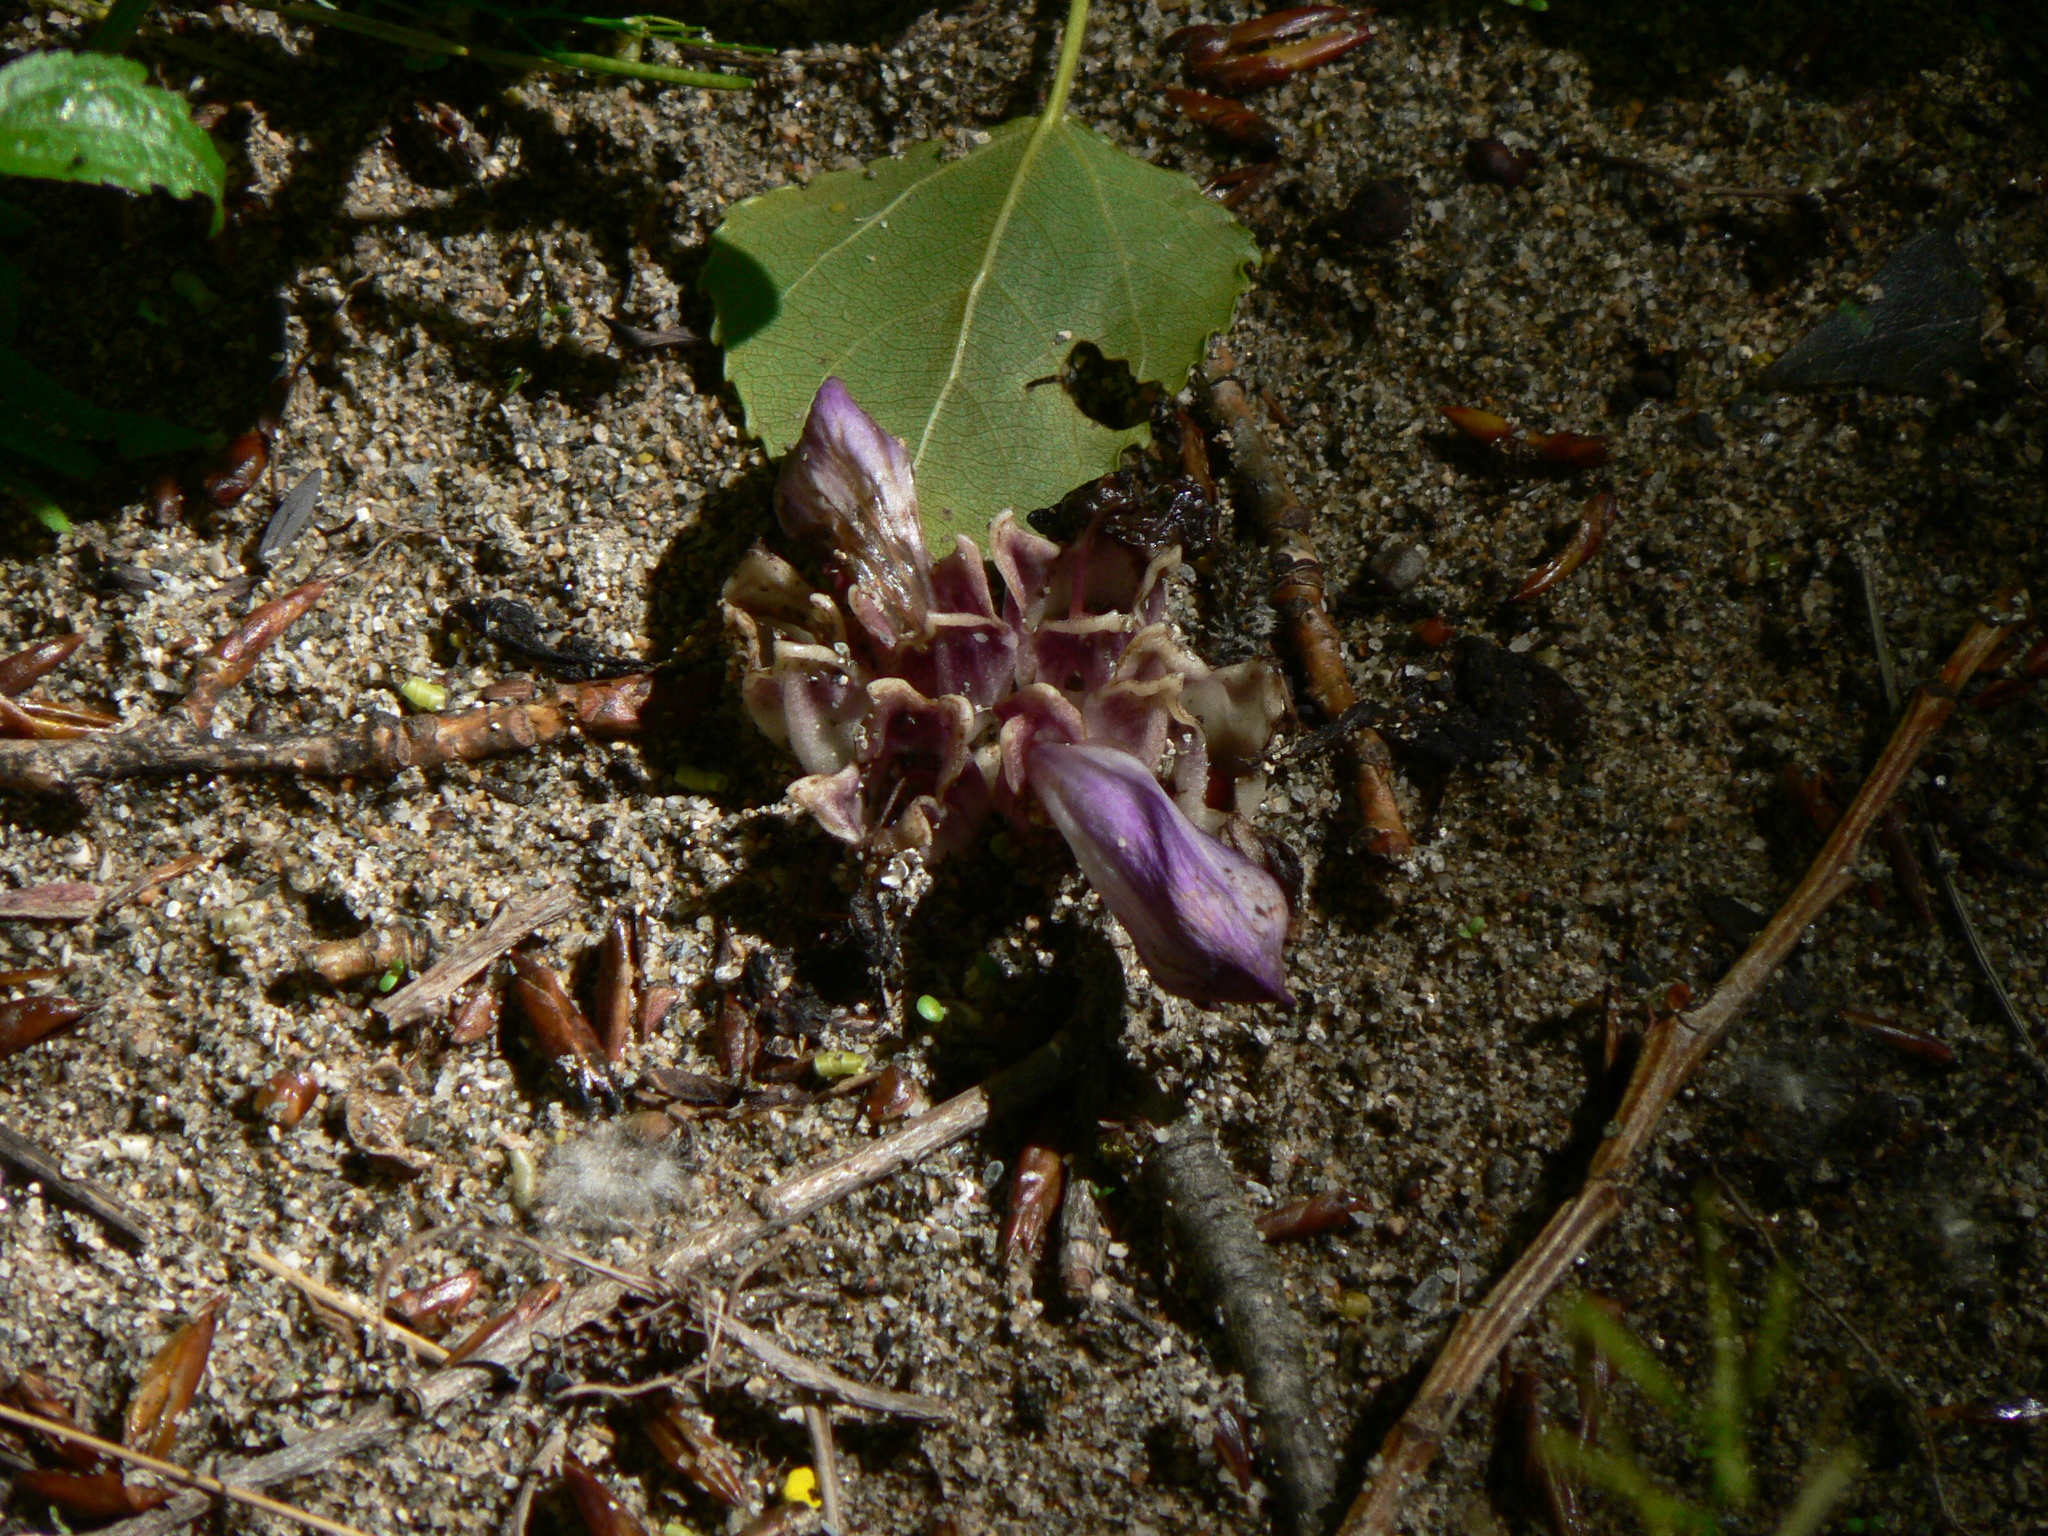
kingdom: Plantae
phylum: Tracheophyta
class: Magnoliopsida
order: Lamiales
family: Orobanchaceae
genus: Lathraea
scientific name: Lathraea clandestina
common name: Purple toothwort
